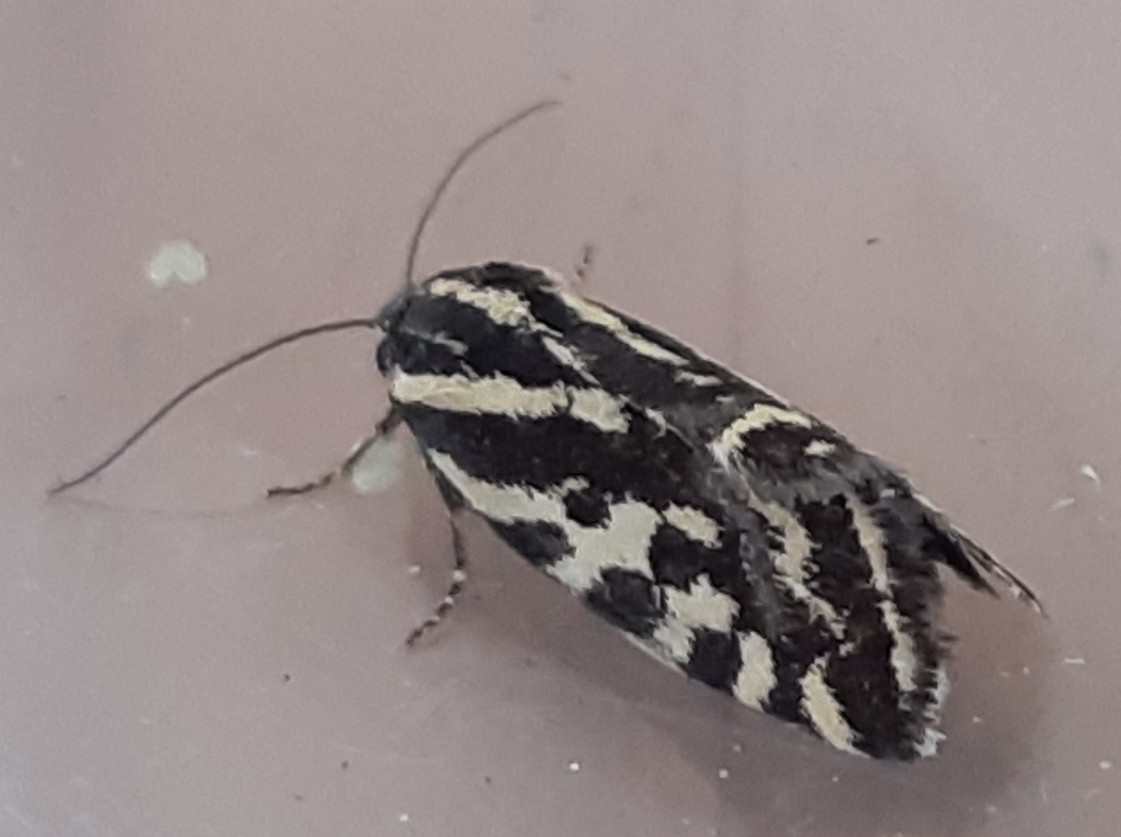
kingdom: Animalia
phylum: Arthropoda
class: Insecta
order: Lepidoptera
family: Noctuidae
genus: Acontia
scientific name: Acontia trabealis
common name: Spotted sulphur
